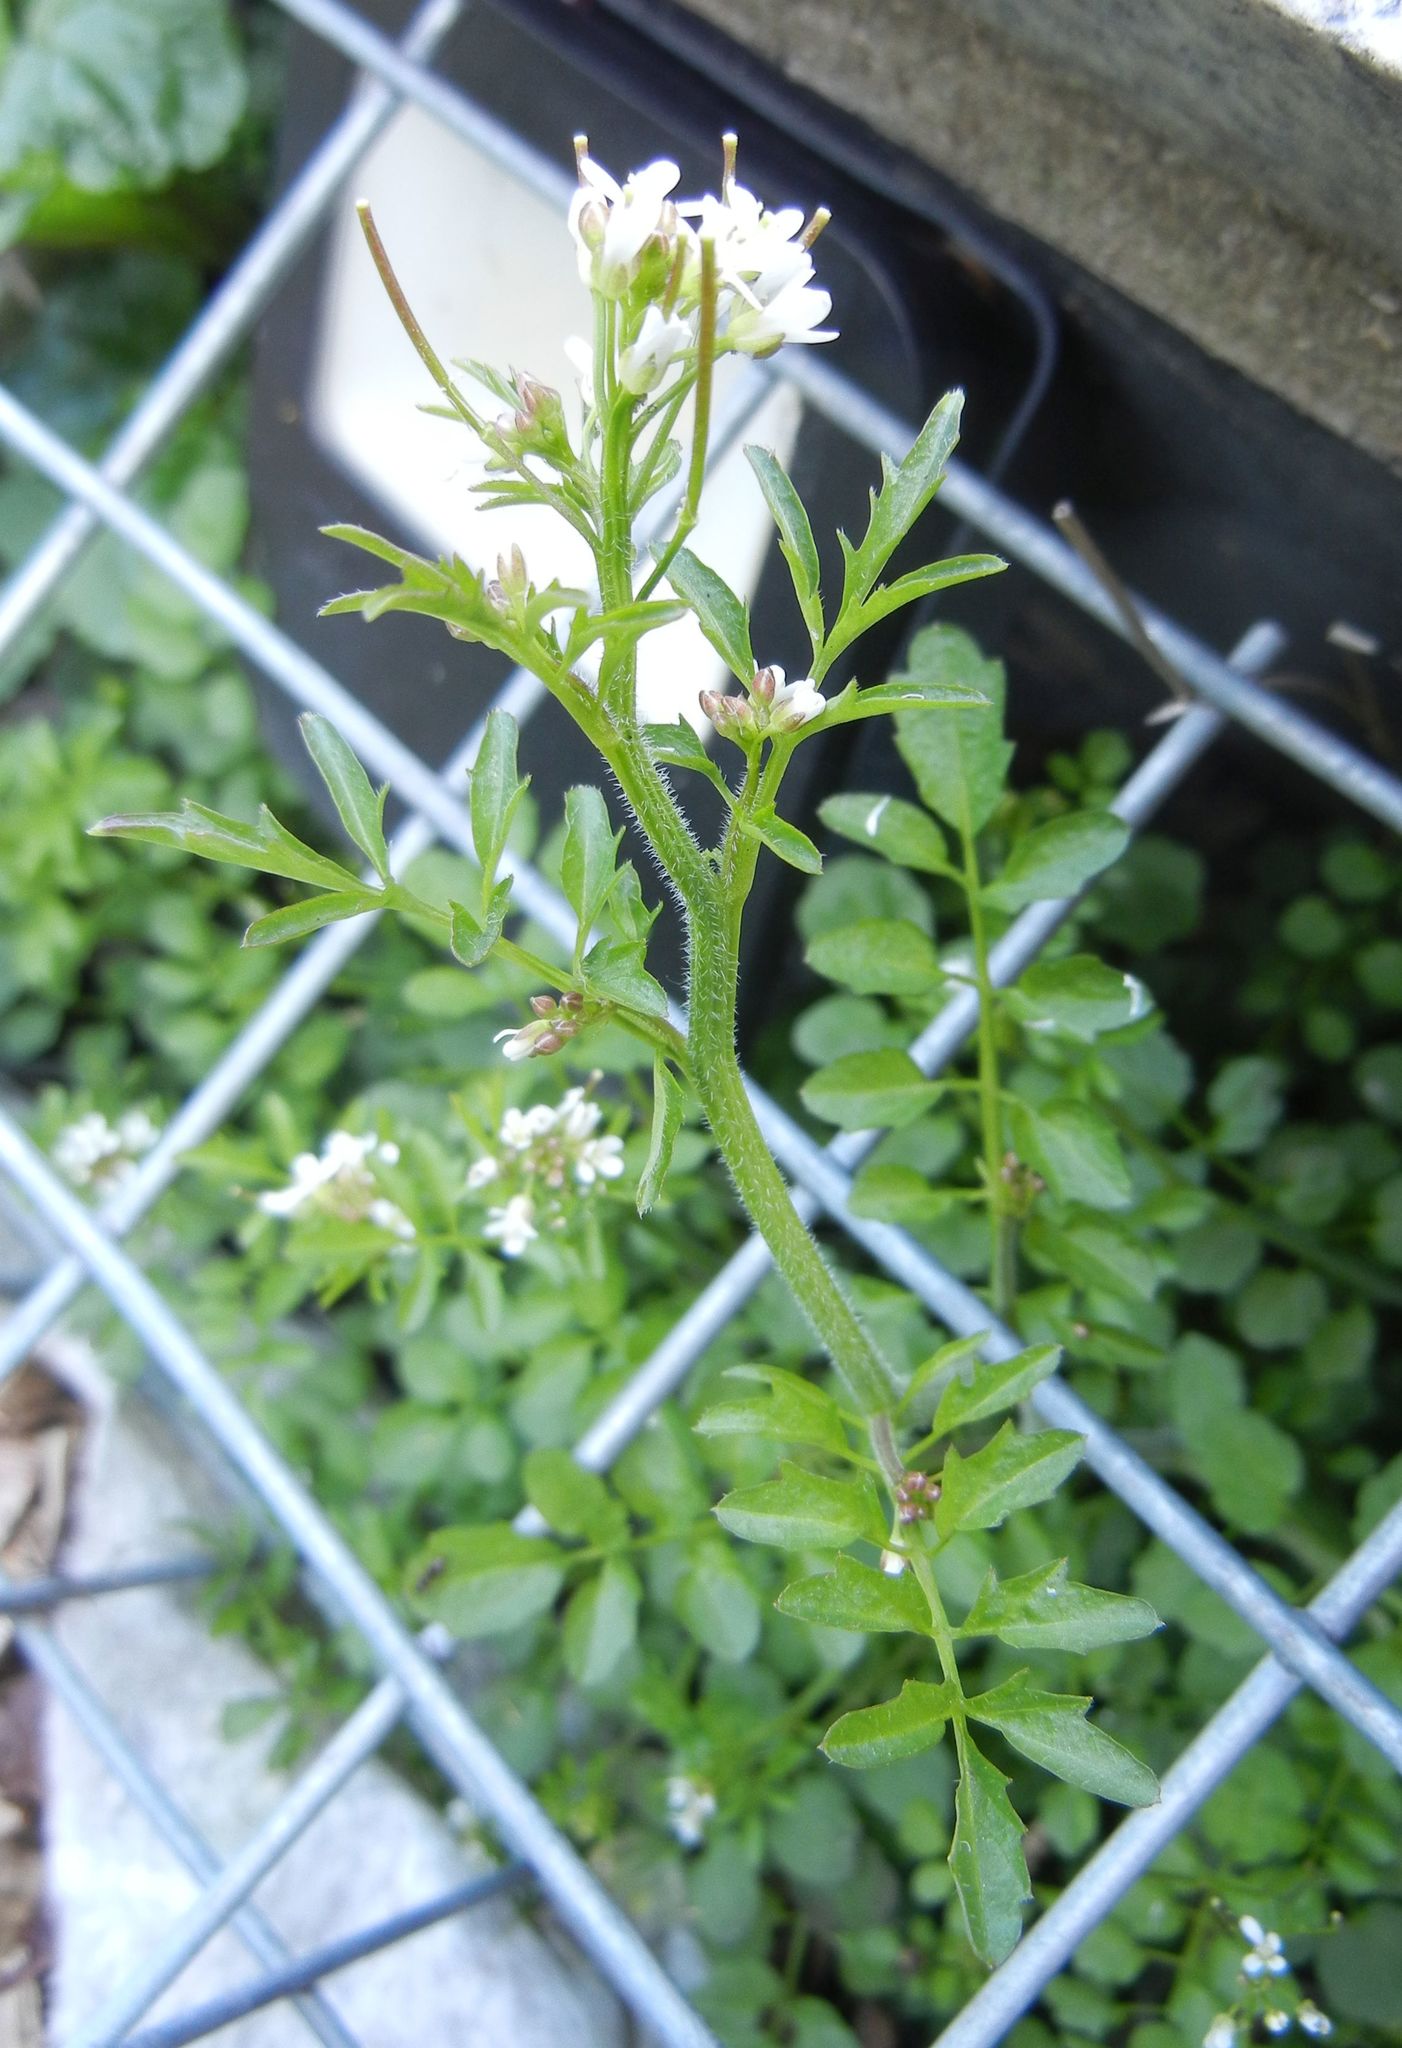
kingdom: Plantae
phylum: Tracheophyta
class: Magnoliopsida
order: Brassicales
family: Brassicaceae
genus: Cardamine
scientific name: Cardamine flexuosa
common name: Woodland bittercress
